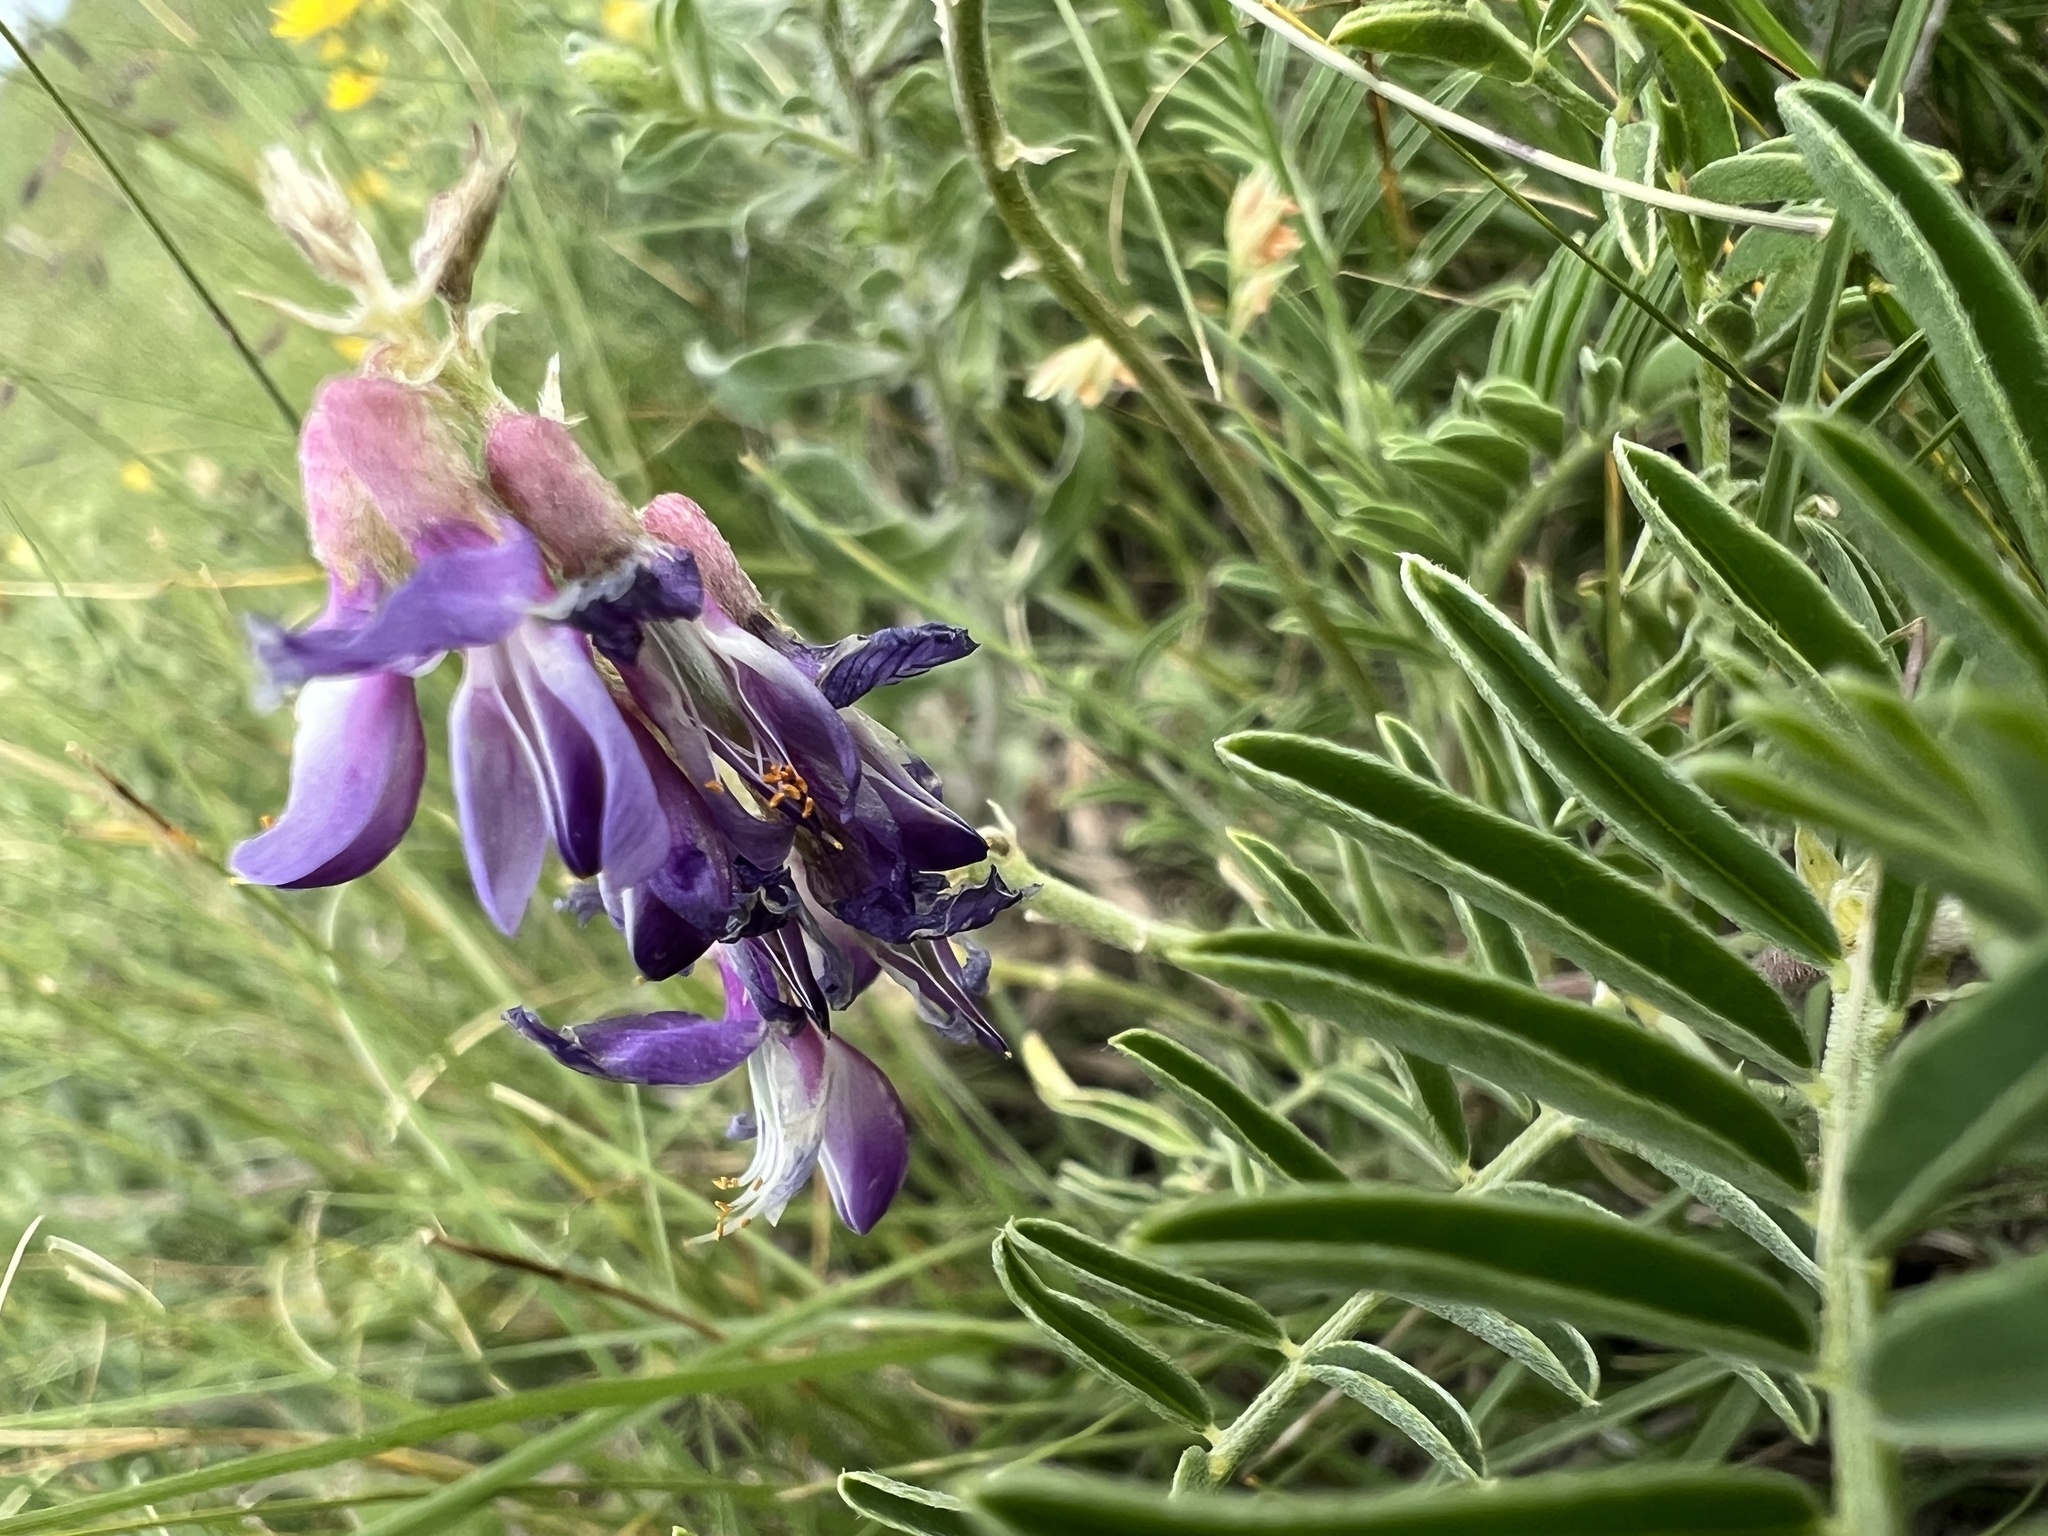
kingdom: Plantae
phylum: Tracheophyta
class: Magnoliopsida
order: Fabales
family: Fabaceae
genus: Astragalus
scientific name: Astragalus bisulcatus
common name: Two-groove milk-vetch
